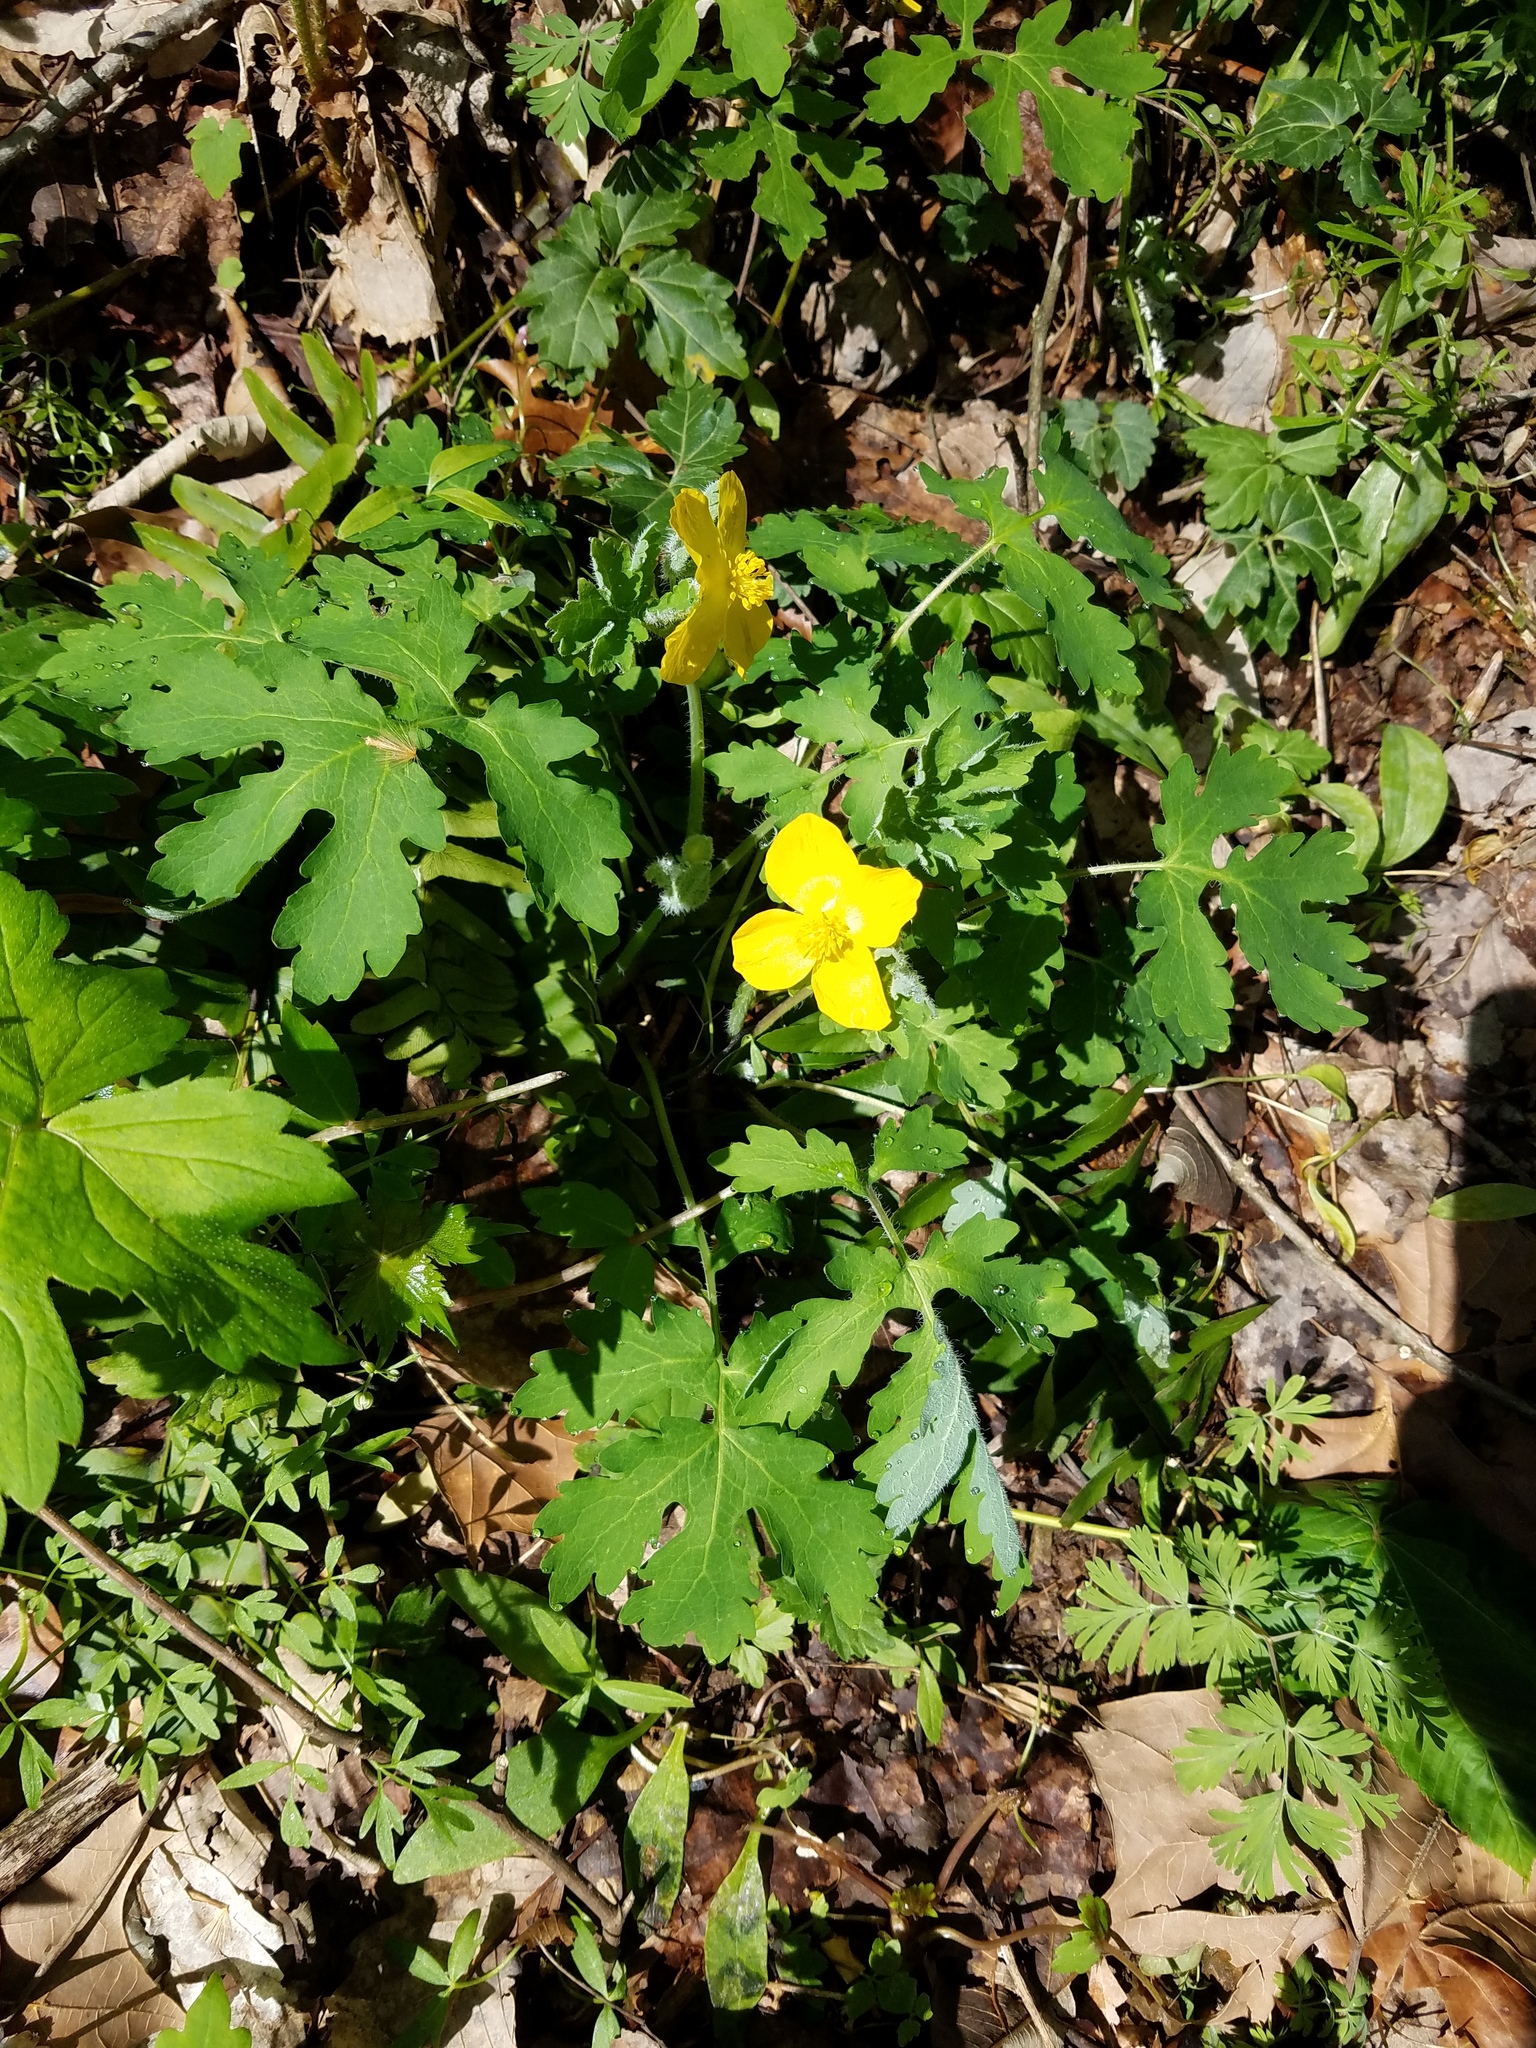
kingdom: Plantae
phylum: Tracheophyta
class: Magnoliopsida
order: Ranunculales
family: Papaveraceae
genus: Stylophorum
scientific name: Stylophorum diphyllum
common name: Celandine poppy
